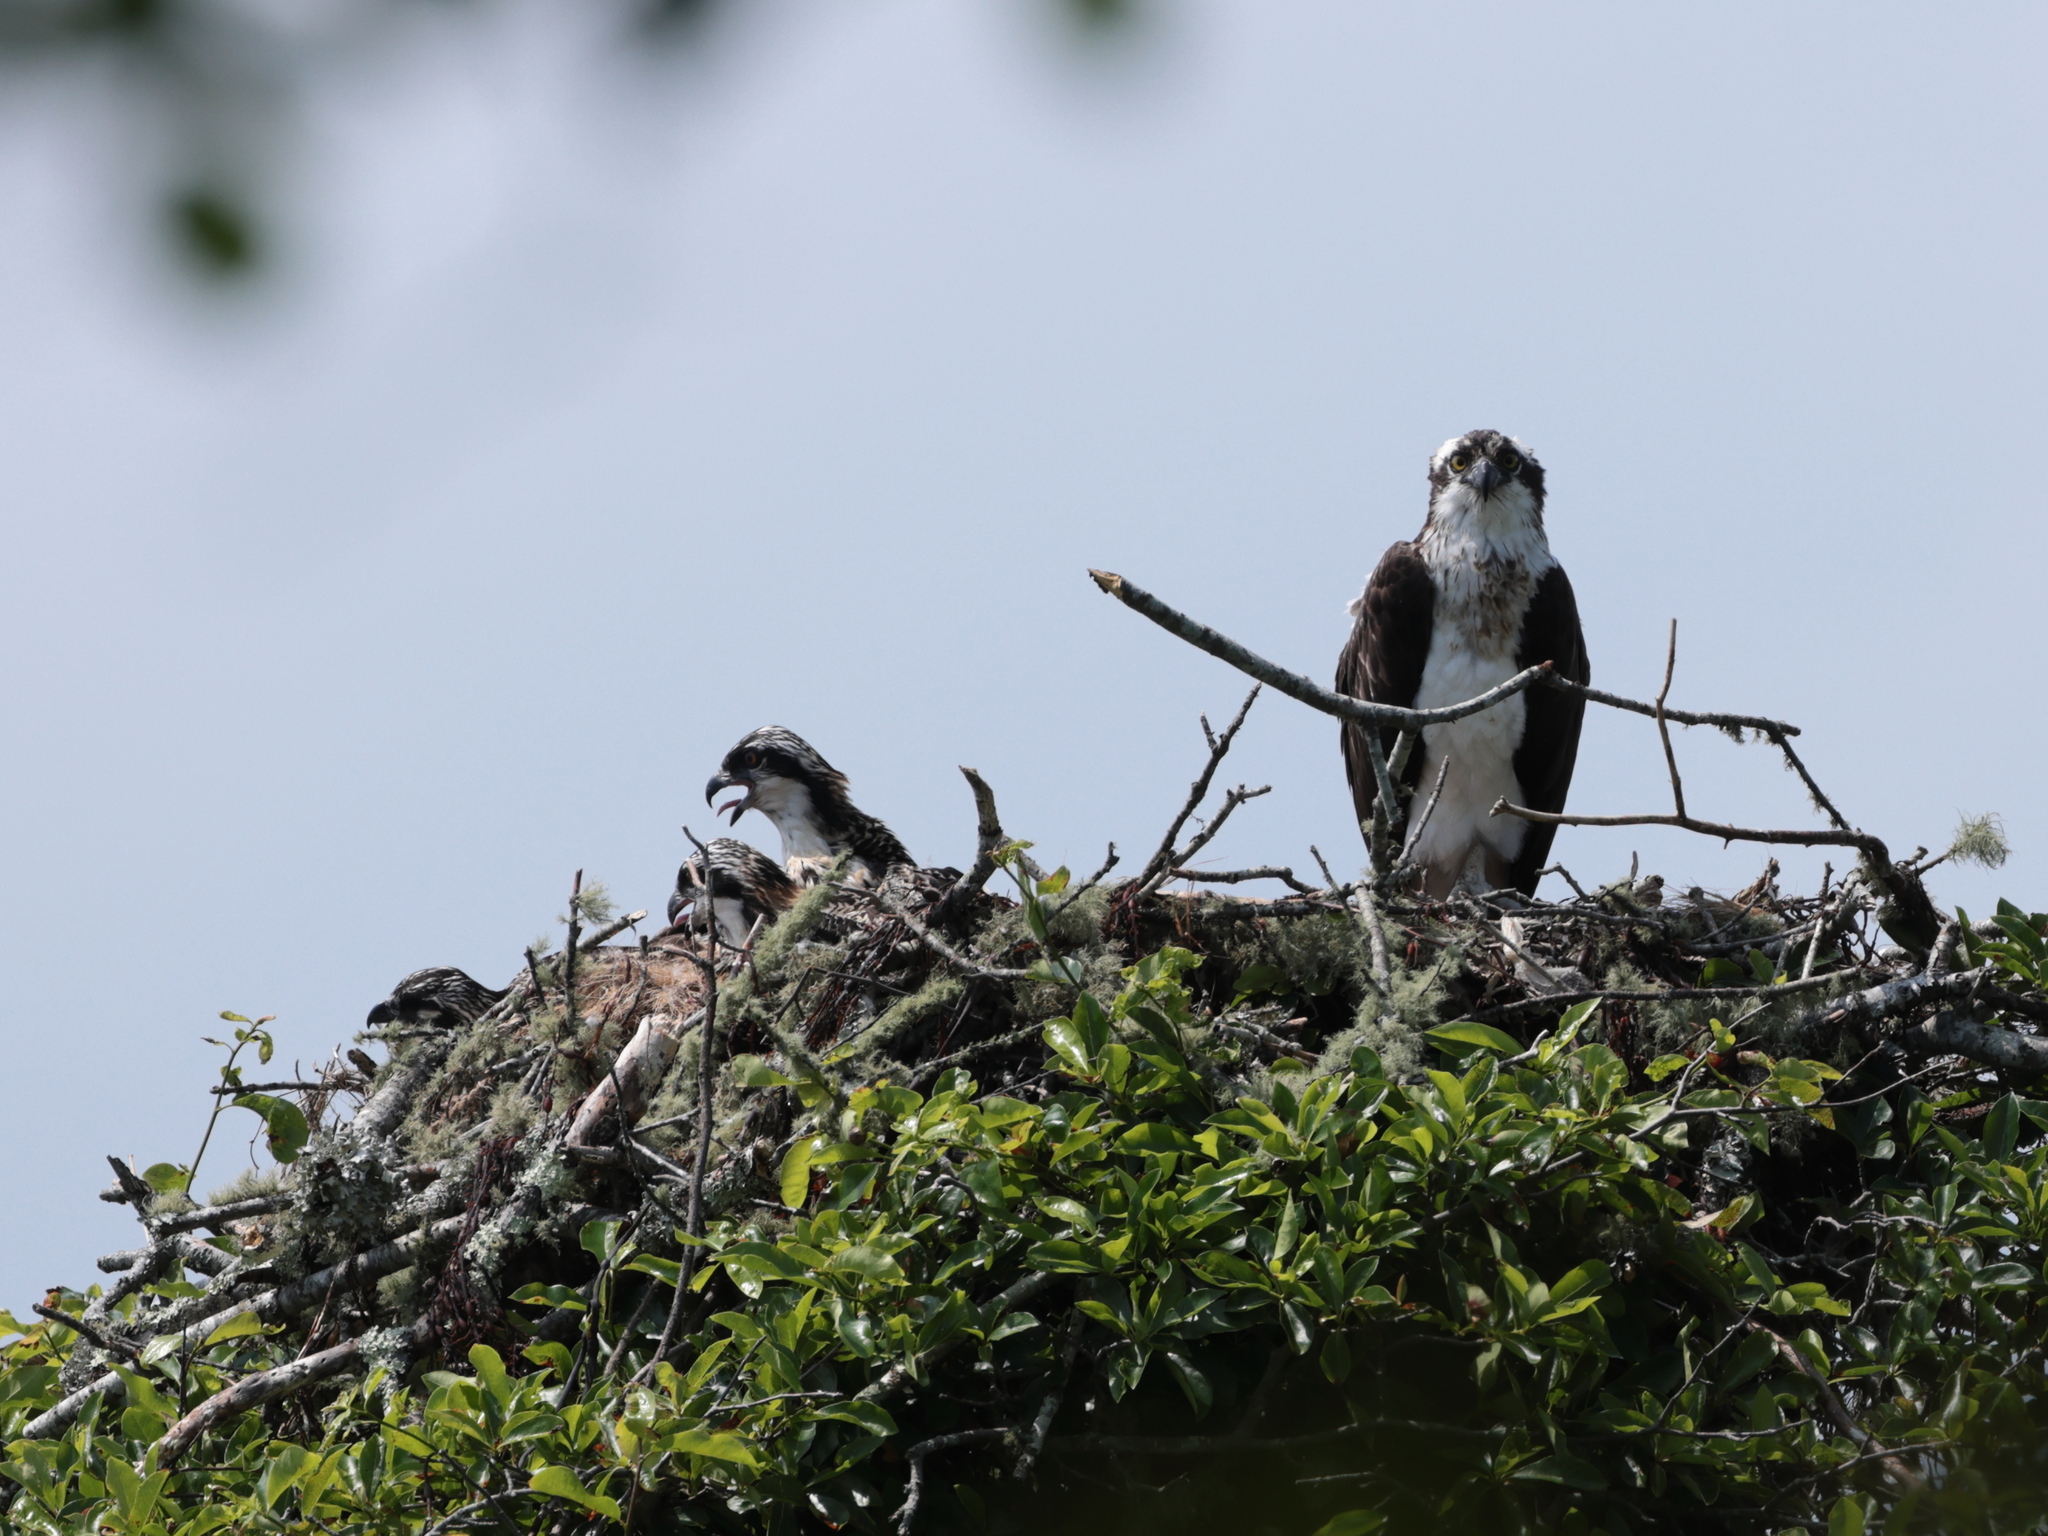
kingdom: Animalia
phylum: Chordata
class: Aves
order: Accipitriformes
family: Pandionidae
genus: Pandion
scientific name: Pandion haliaetus
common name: Osprey
